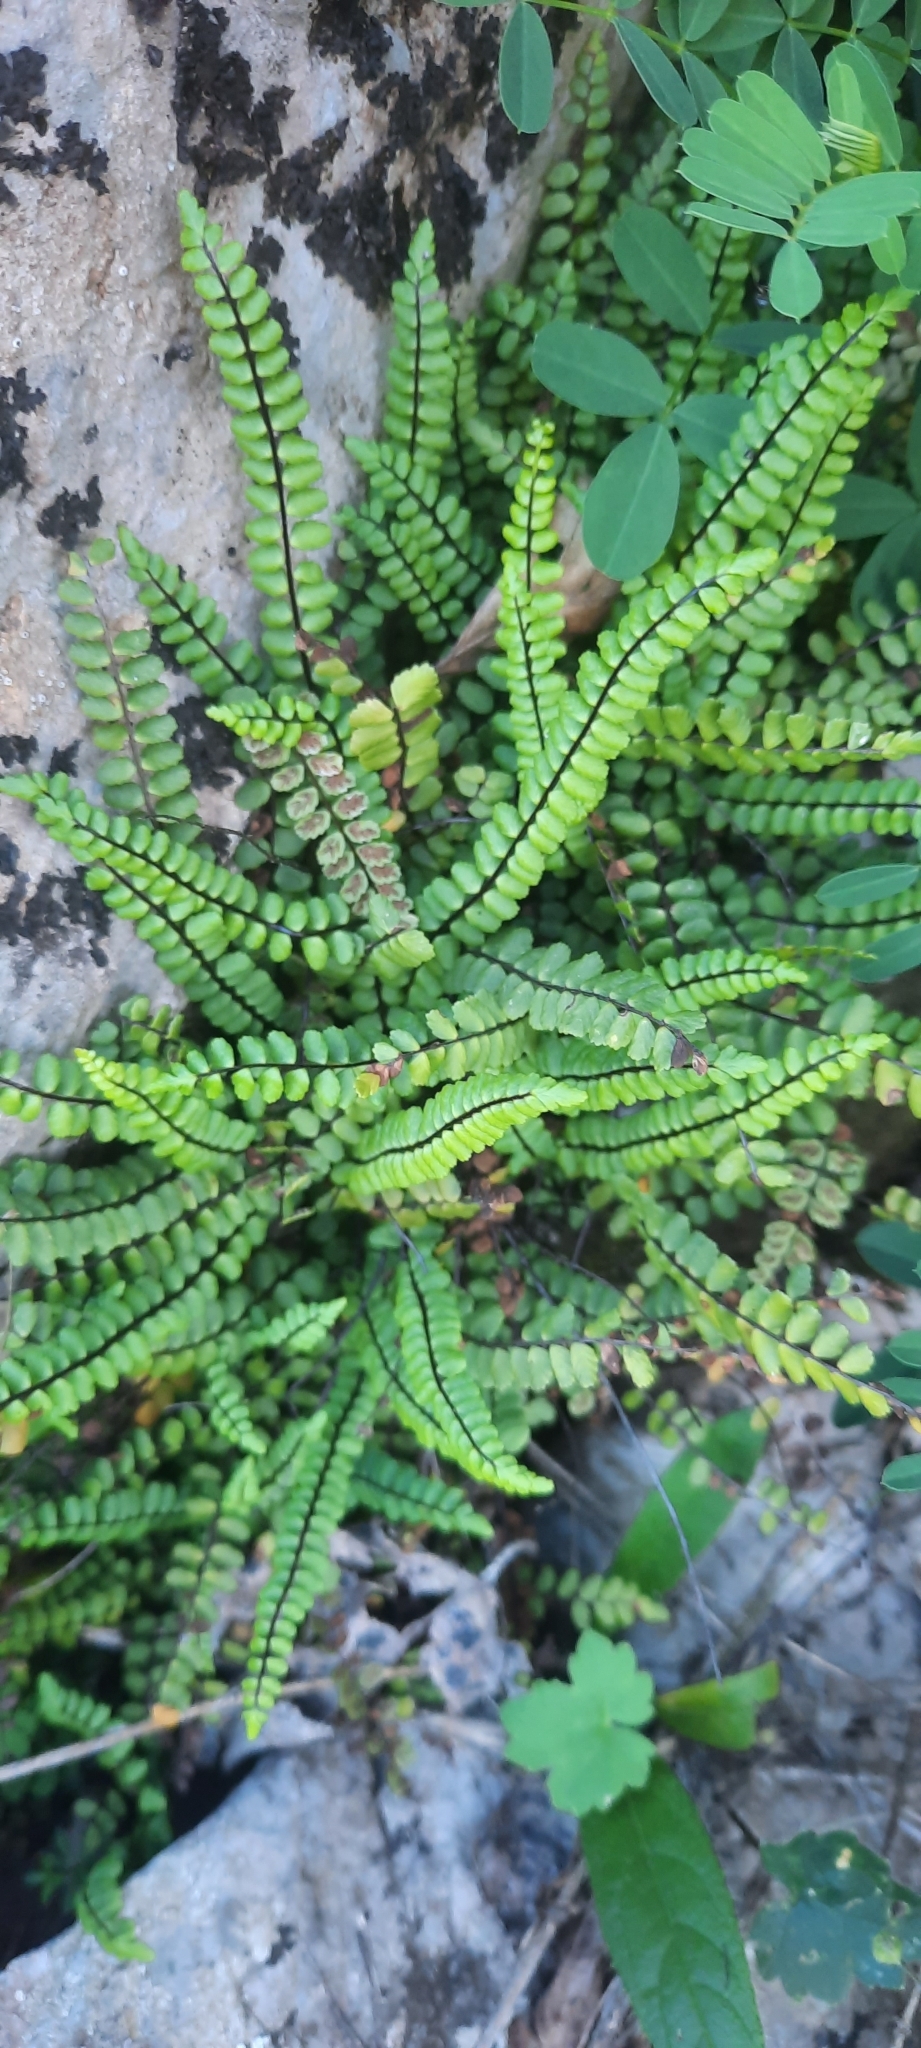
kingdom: Plantae
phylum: Tracheophyta
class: Polypodiopsida
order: Polypodiales
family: Aspleniaceae
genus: Asplenium
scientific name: Asplenium trichomanes
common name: Maidenhair spleenwort
